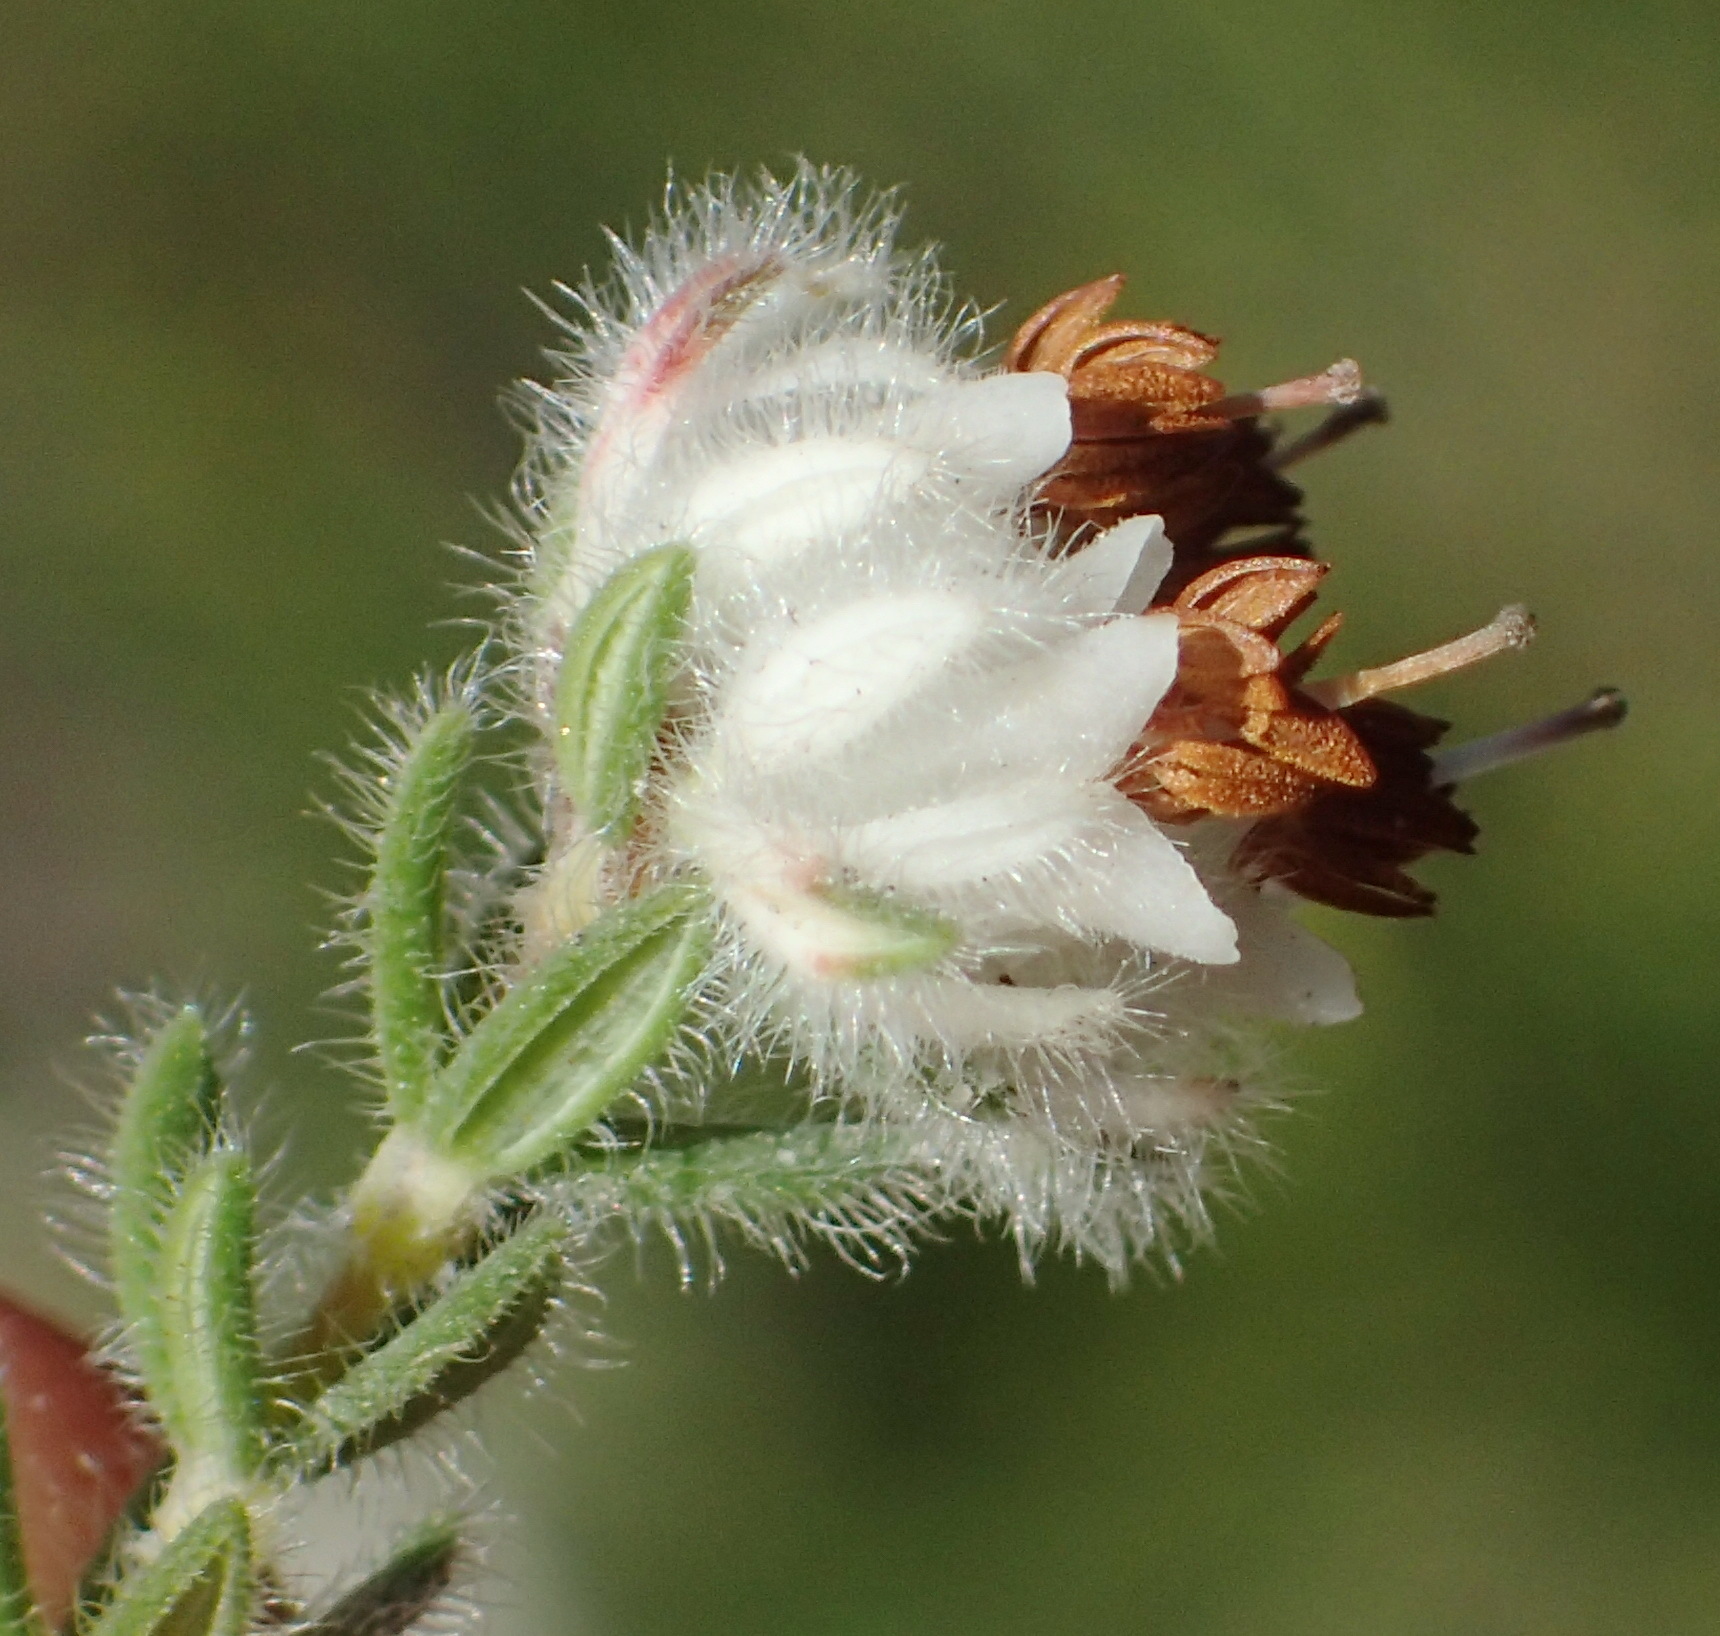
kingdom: Plantae
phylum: Tracheophyta
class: Magnoliopsida
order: Ericales
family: Ericaceae
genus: Erica
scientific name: Erica flaccida
